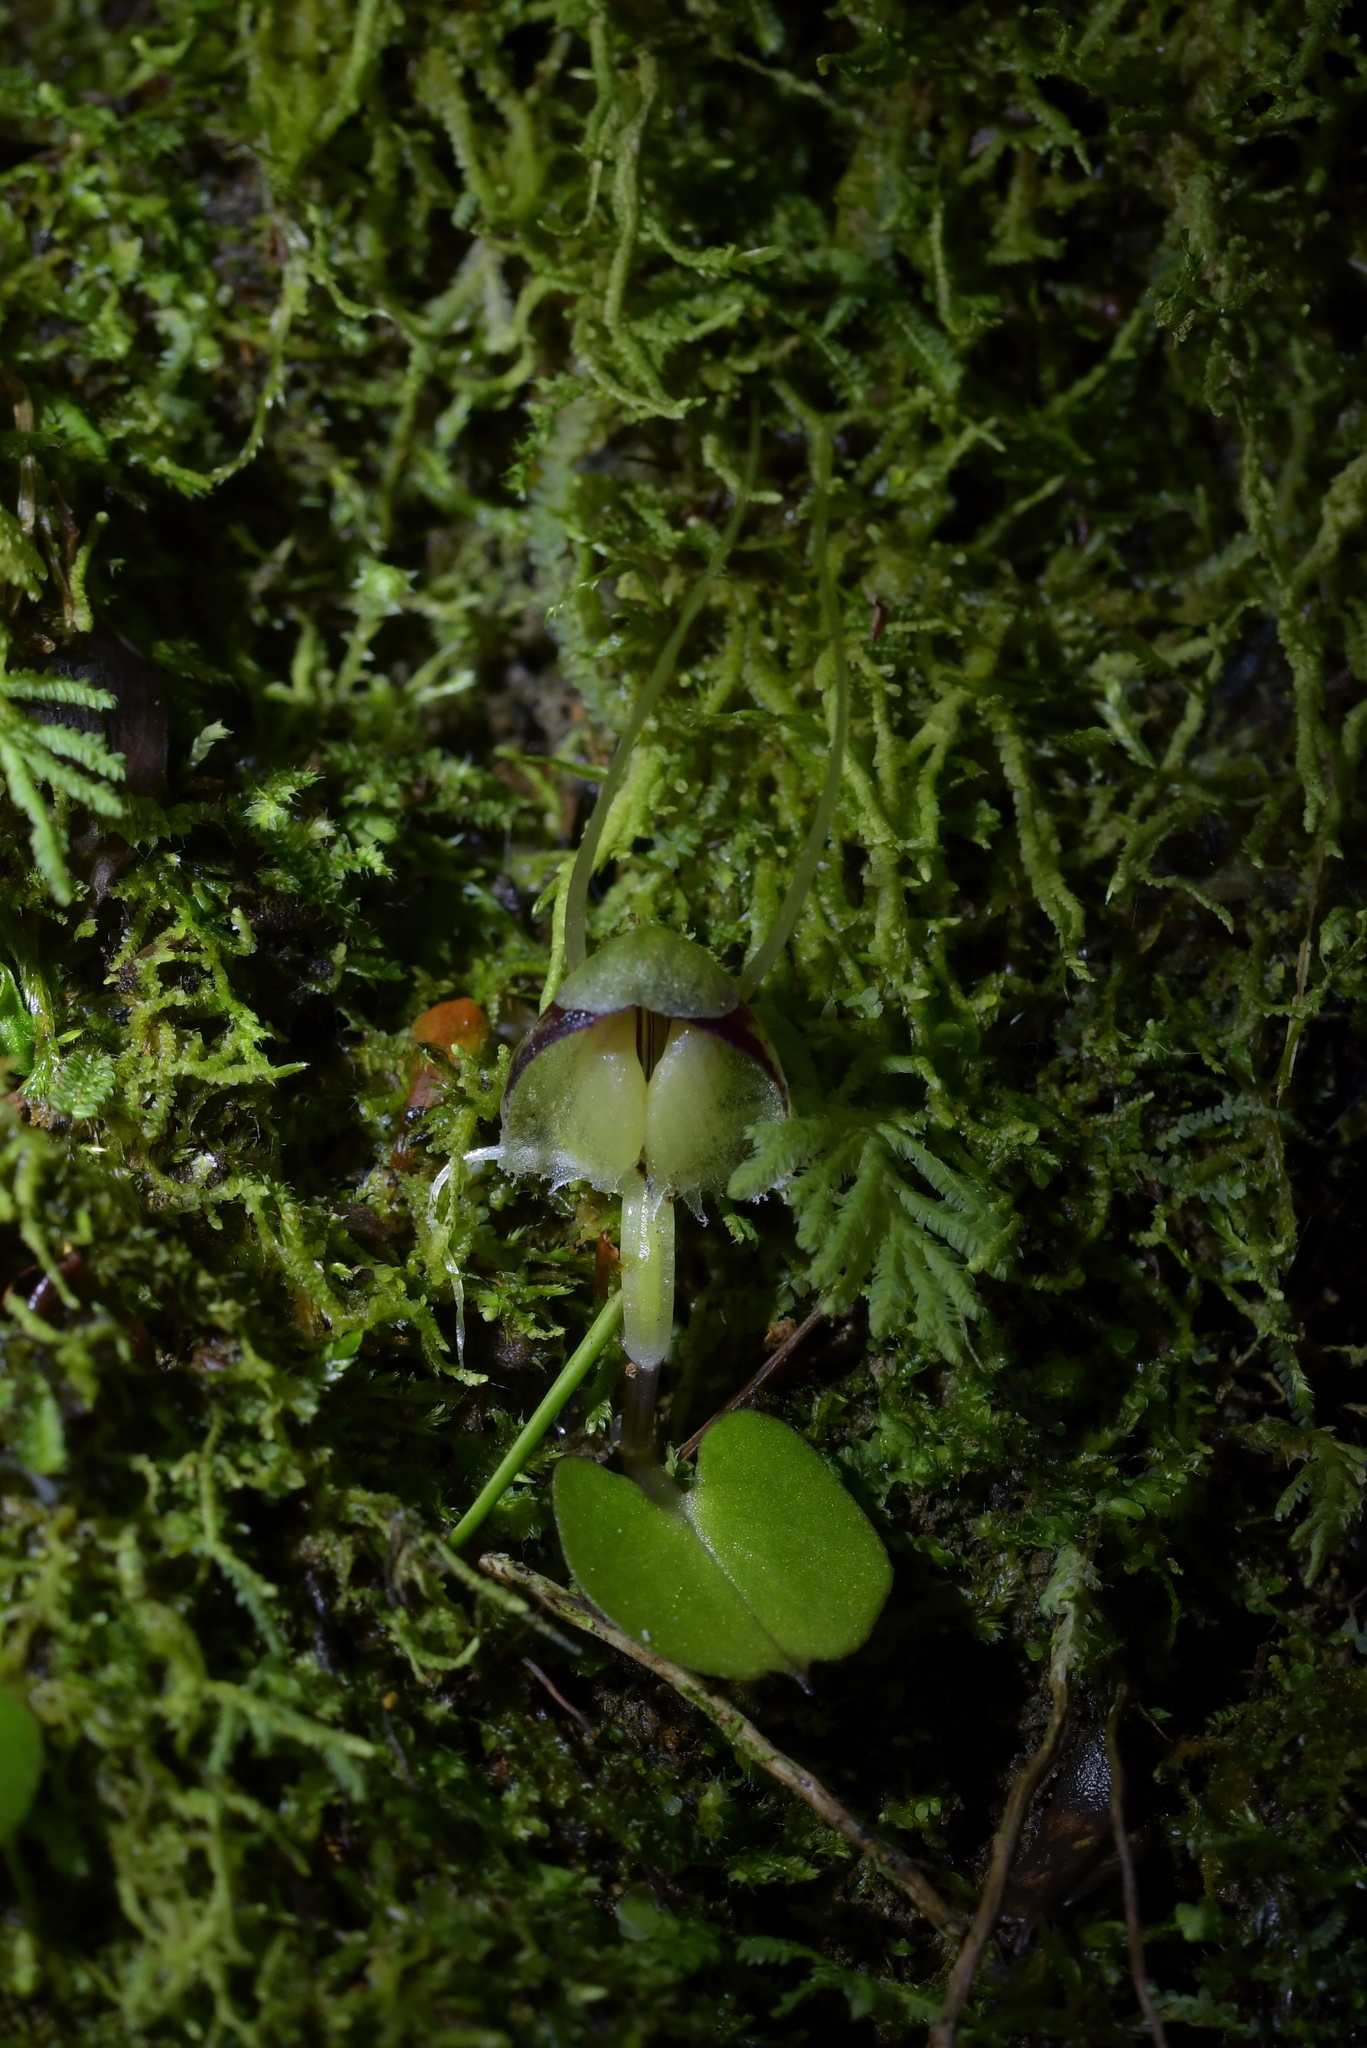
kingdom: Plantae
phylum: Tracheophyta
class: Liliopsida
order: Asparagales
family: Orchidaceae
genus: Corybas
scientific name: Corybas vitreus
